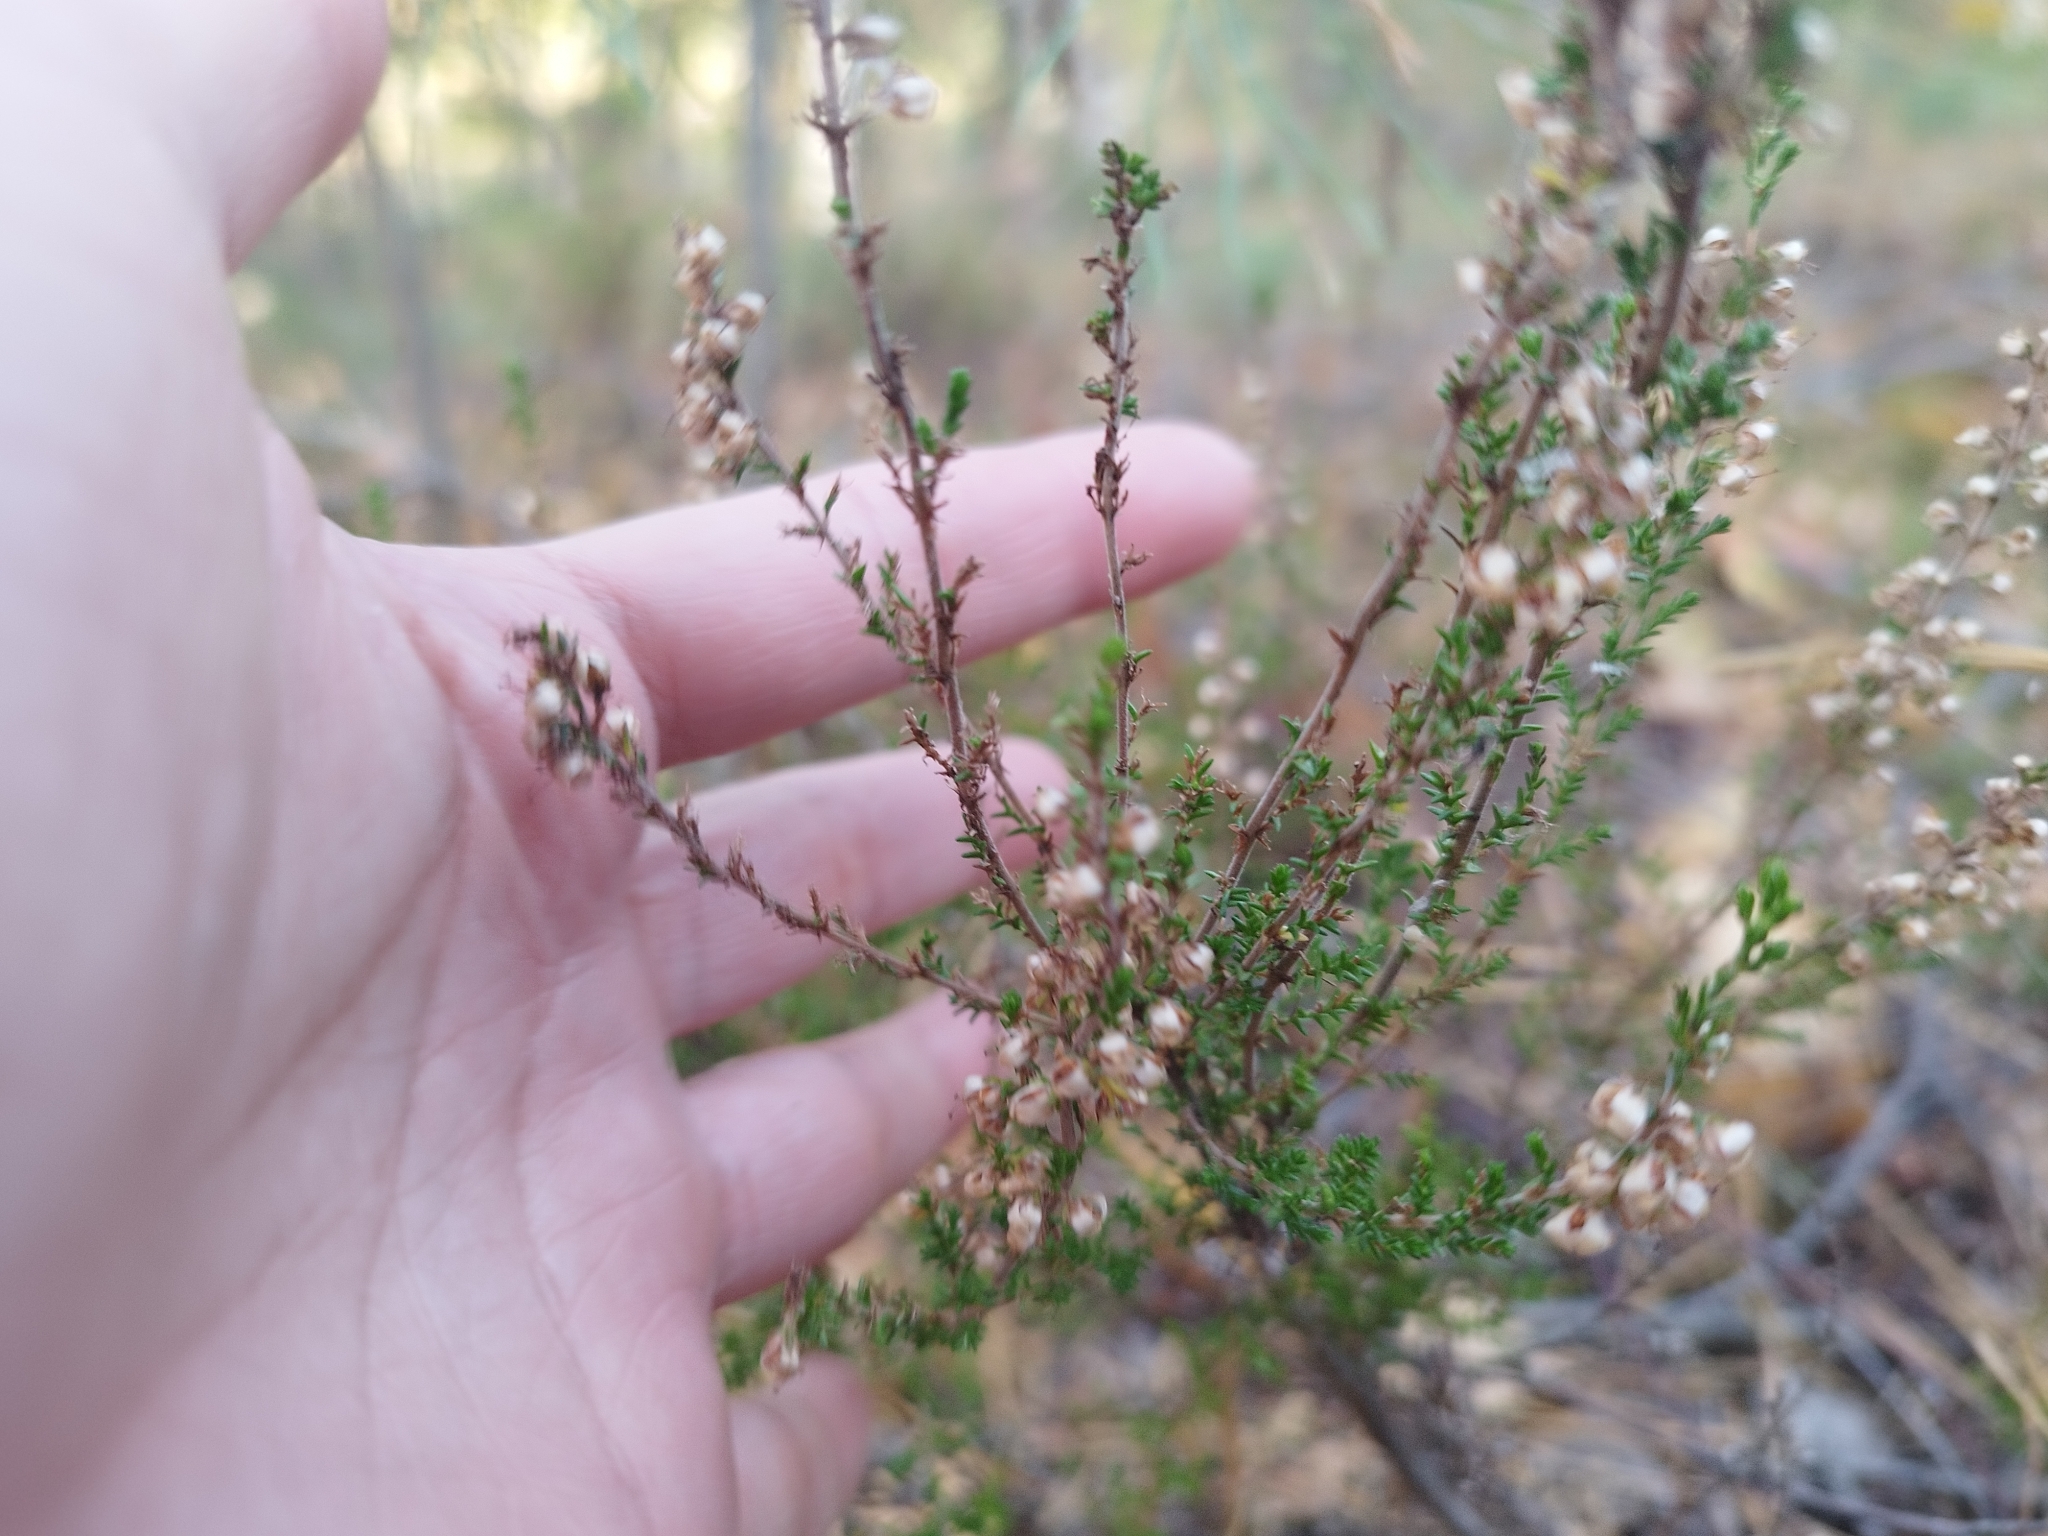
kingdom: Plantae
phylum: Tracheophyta
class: Magnoliopsida
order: Ericales
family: Ericaceae
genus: Calluna
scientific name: Calluna vulgaris
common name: Heather
